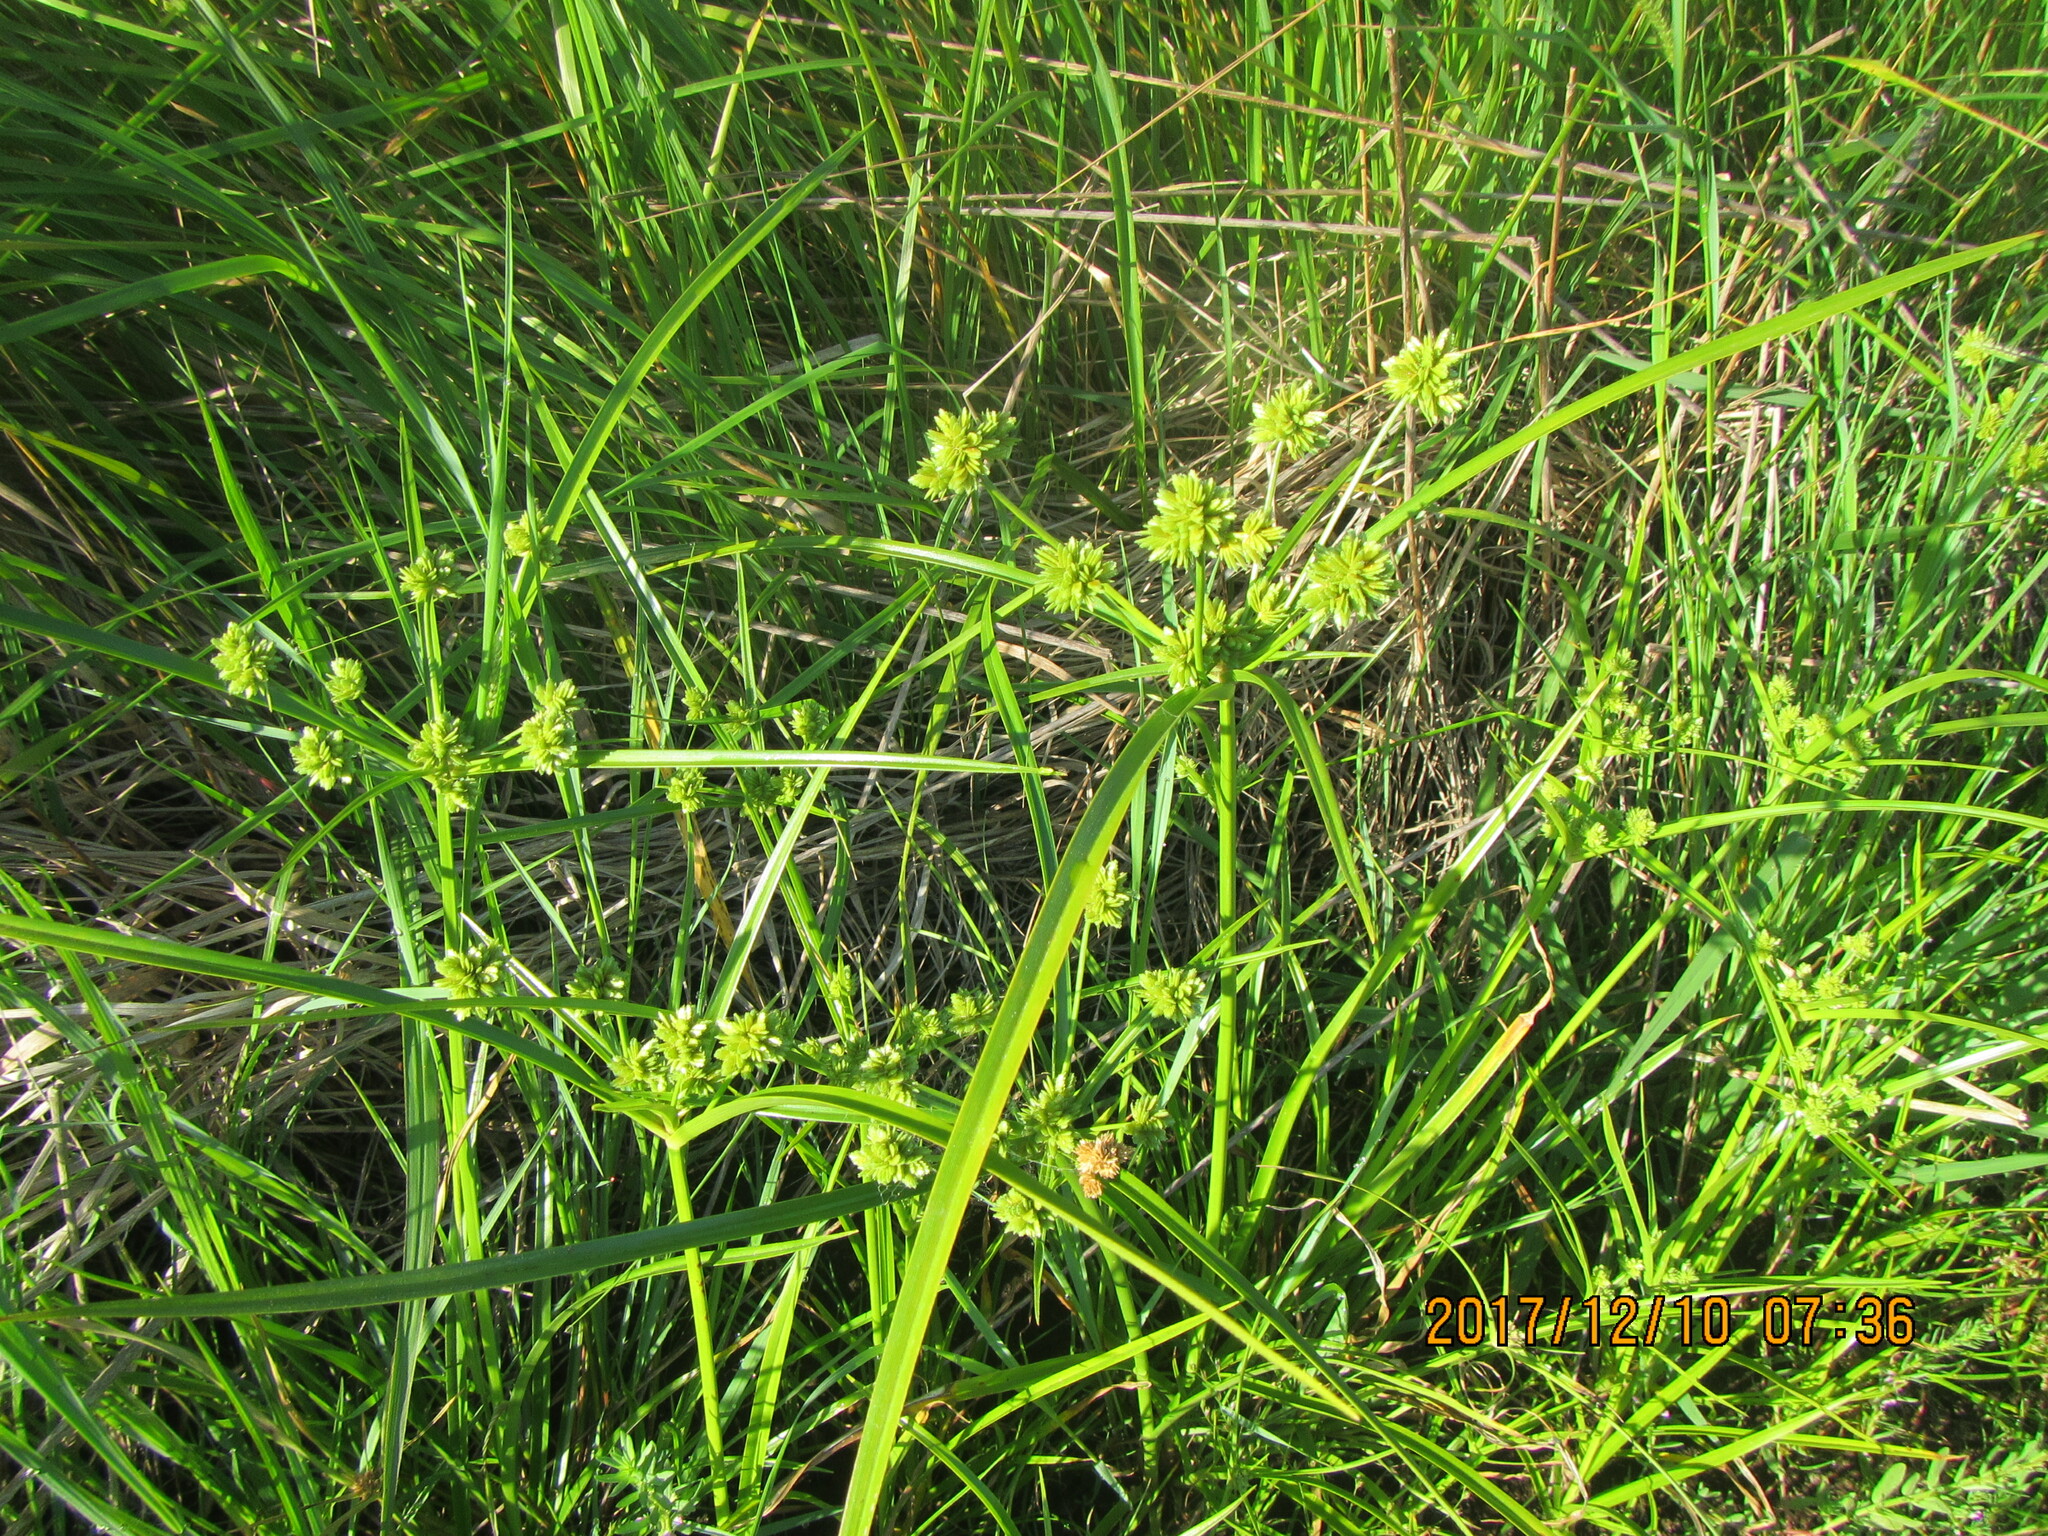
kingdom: Plantae
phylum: Tracheophyta
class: Liliopsida
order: Poales
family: Cyperaceae
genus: Cyperus
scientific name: Cyperus eragrostis
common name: Tall flatsedge
